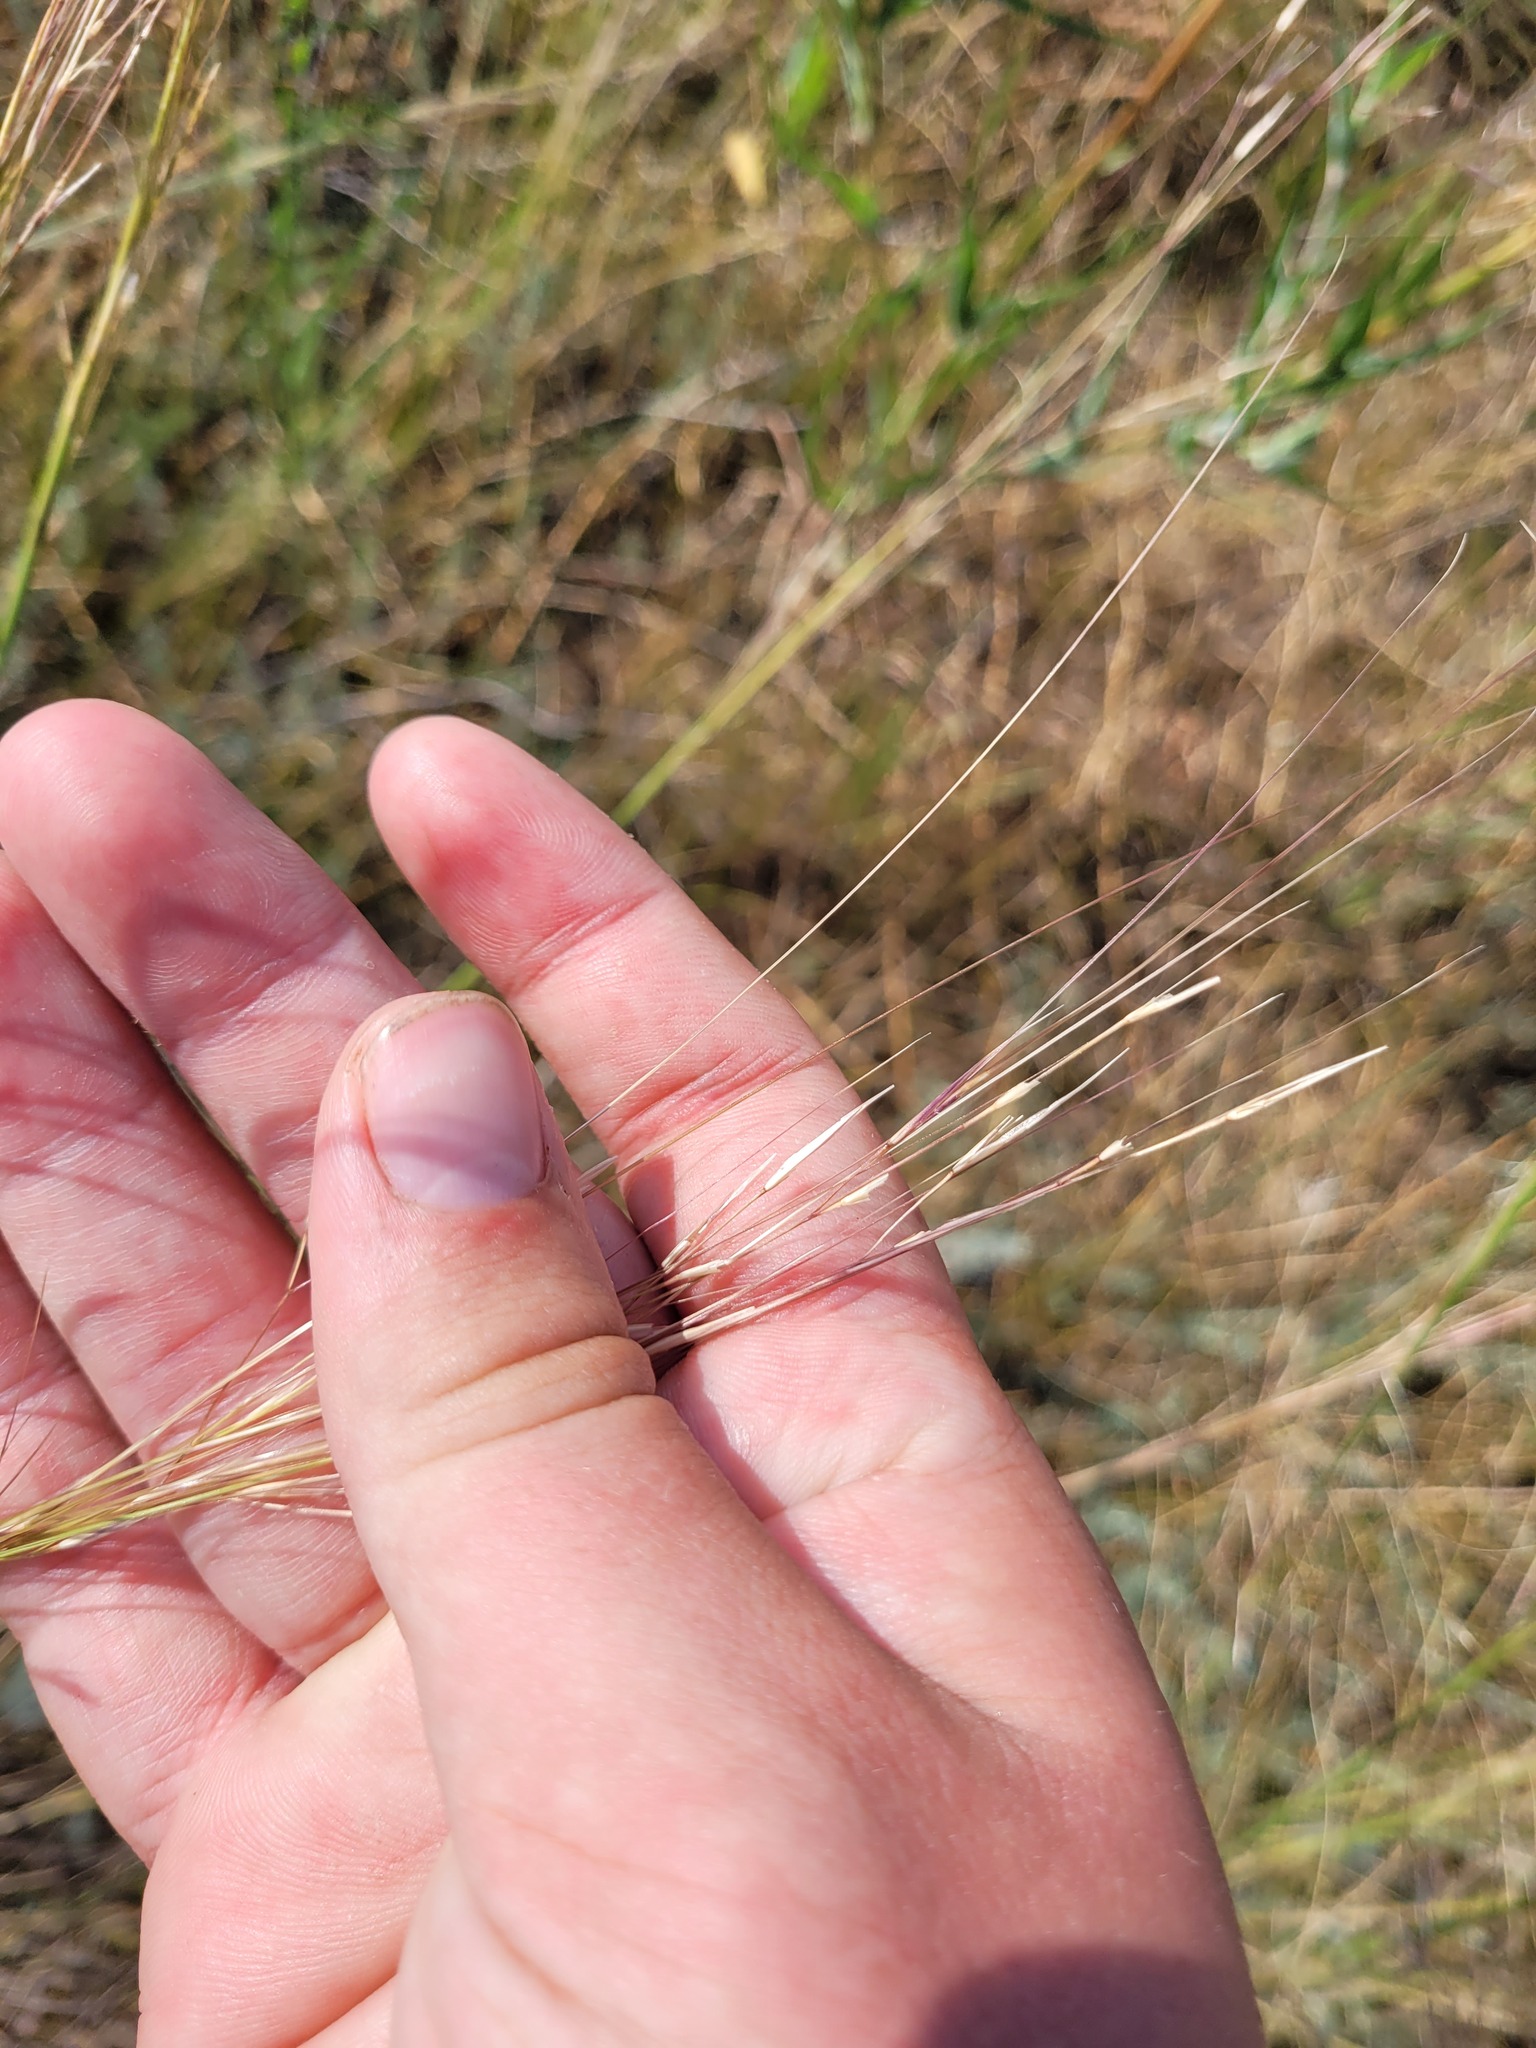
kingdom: Plantae
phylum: Tracheophyta
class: Liliopsida
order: Poales
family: Poaceae
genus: Stipa
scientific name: Stipa sareptana
